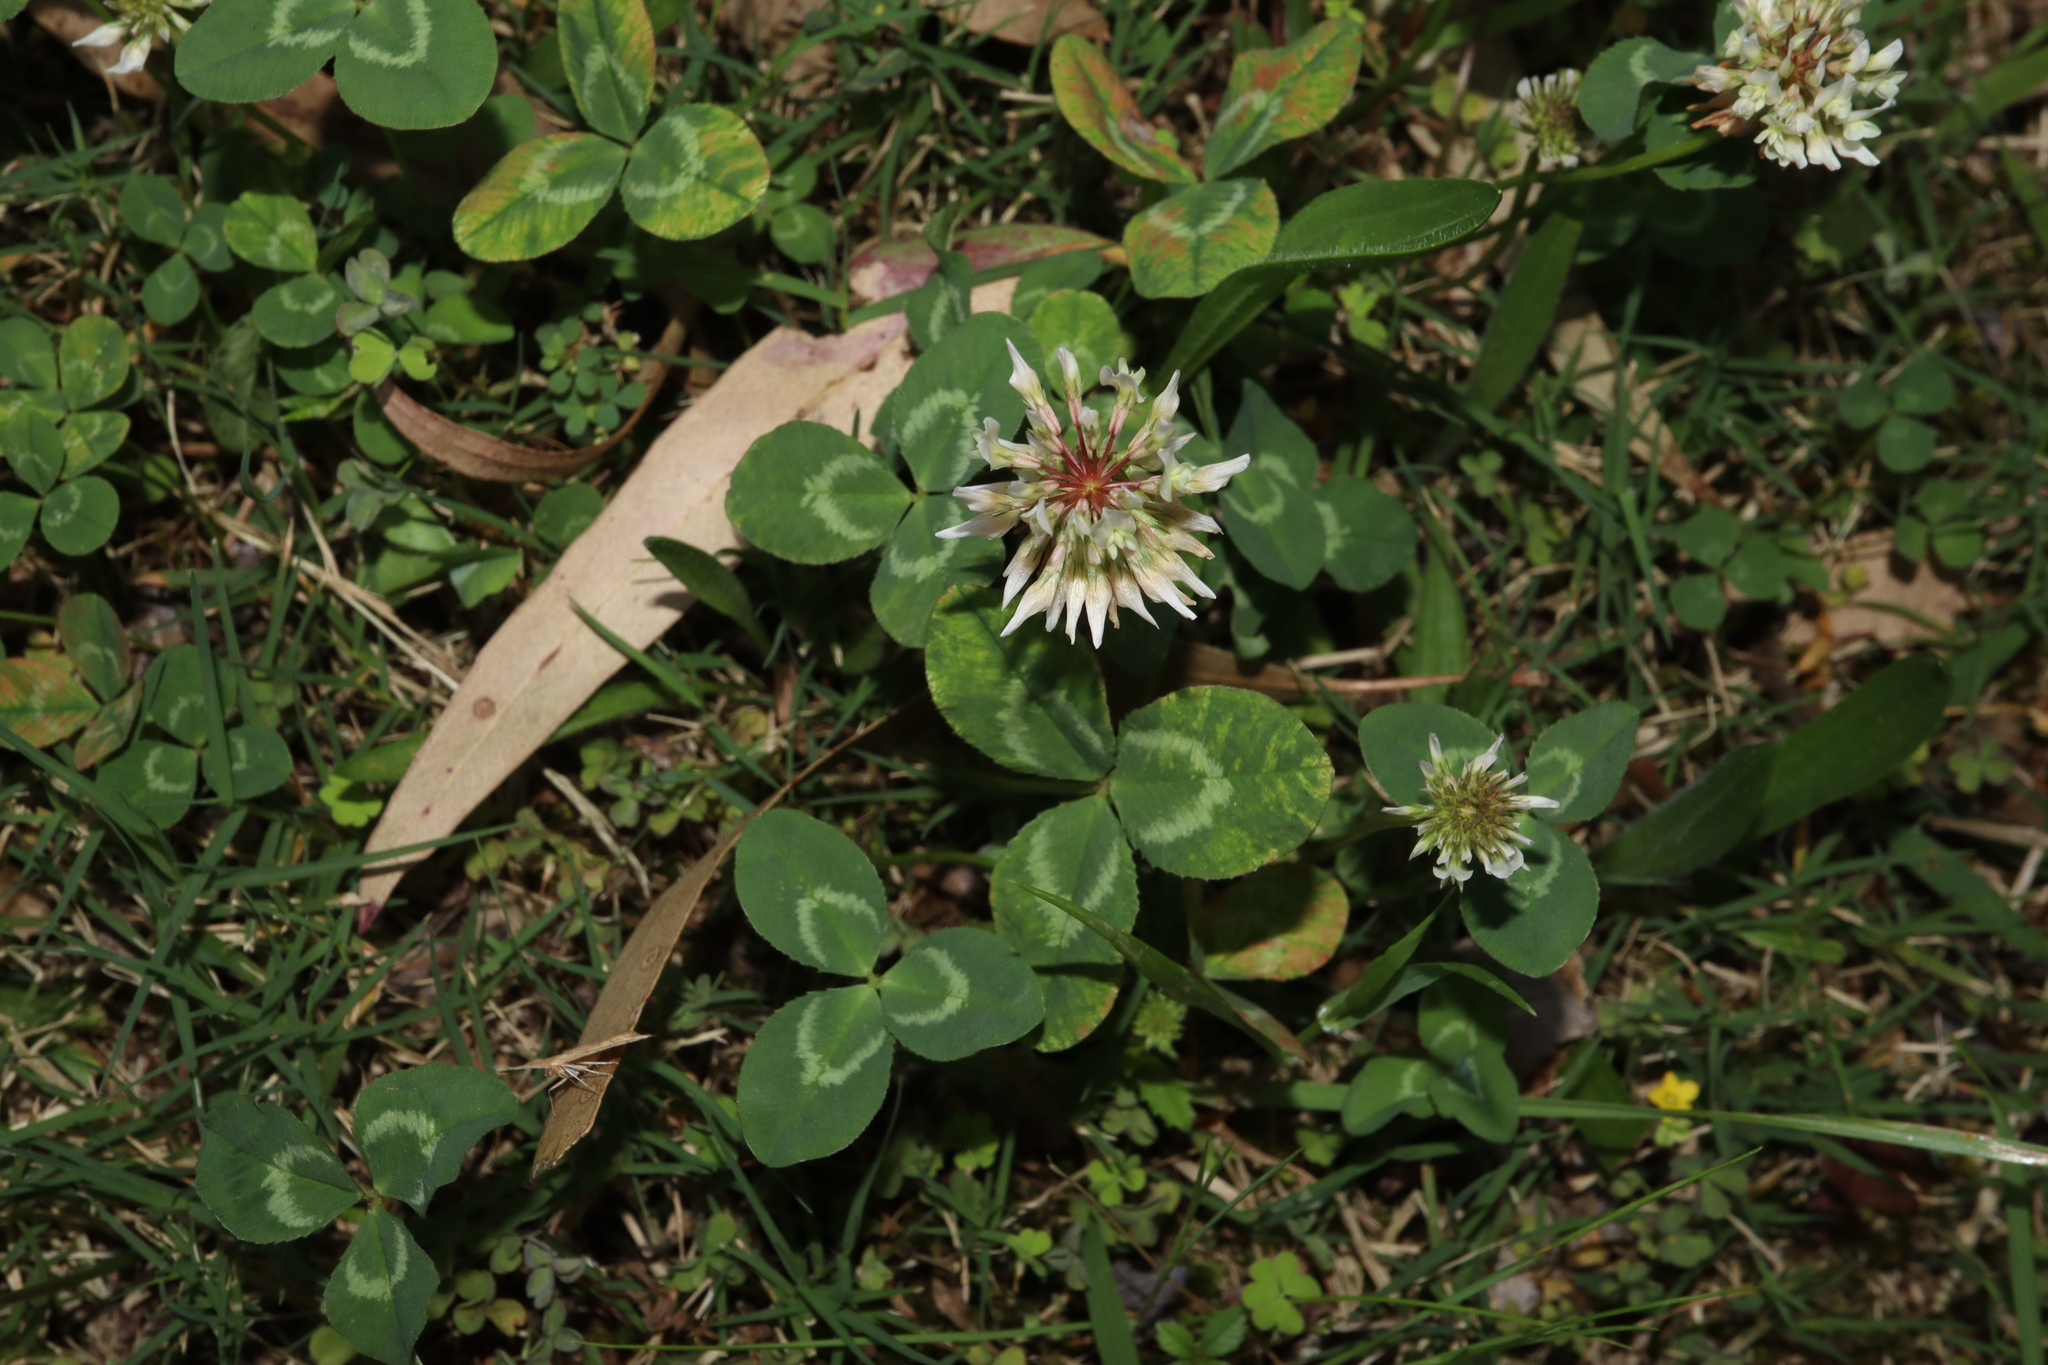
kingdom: Plantae
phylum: Tracheophyta
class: Magnoliopsida
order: Fabales
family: Fabaceae
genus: Trifolium
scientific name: Trifolium repens
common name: White clover
